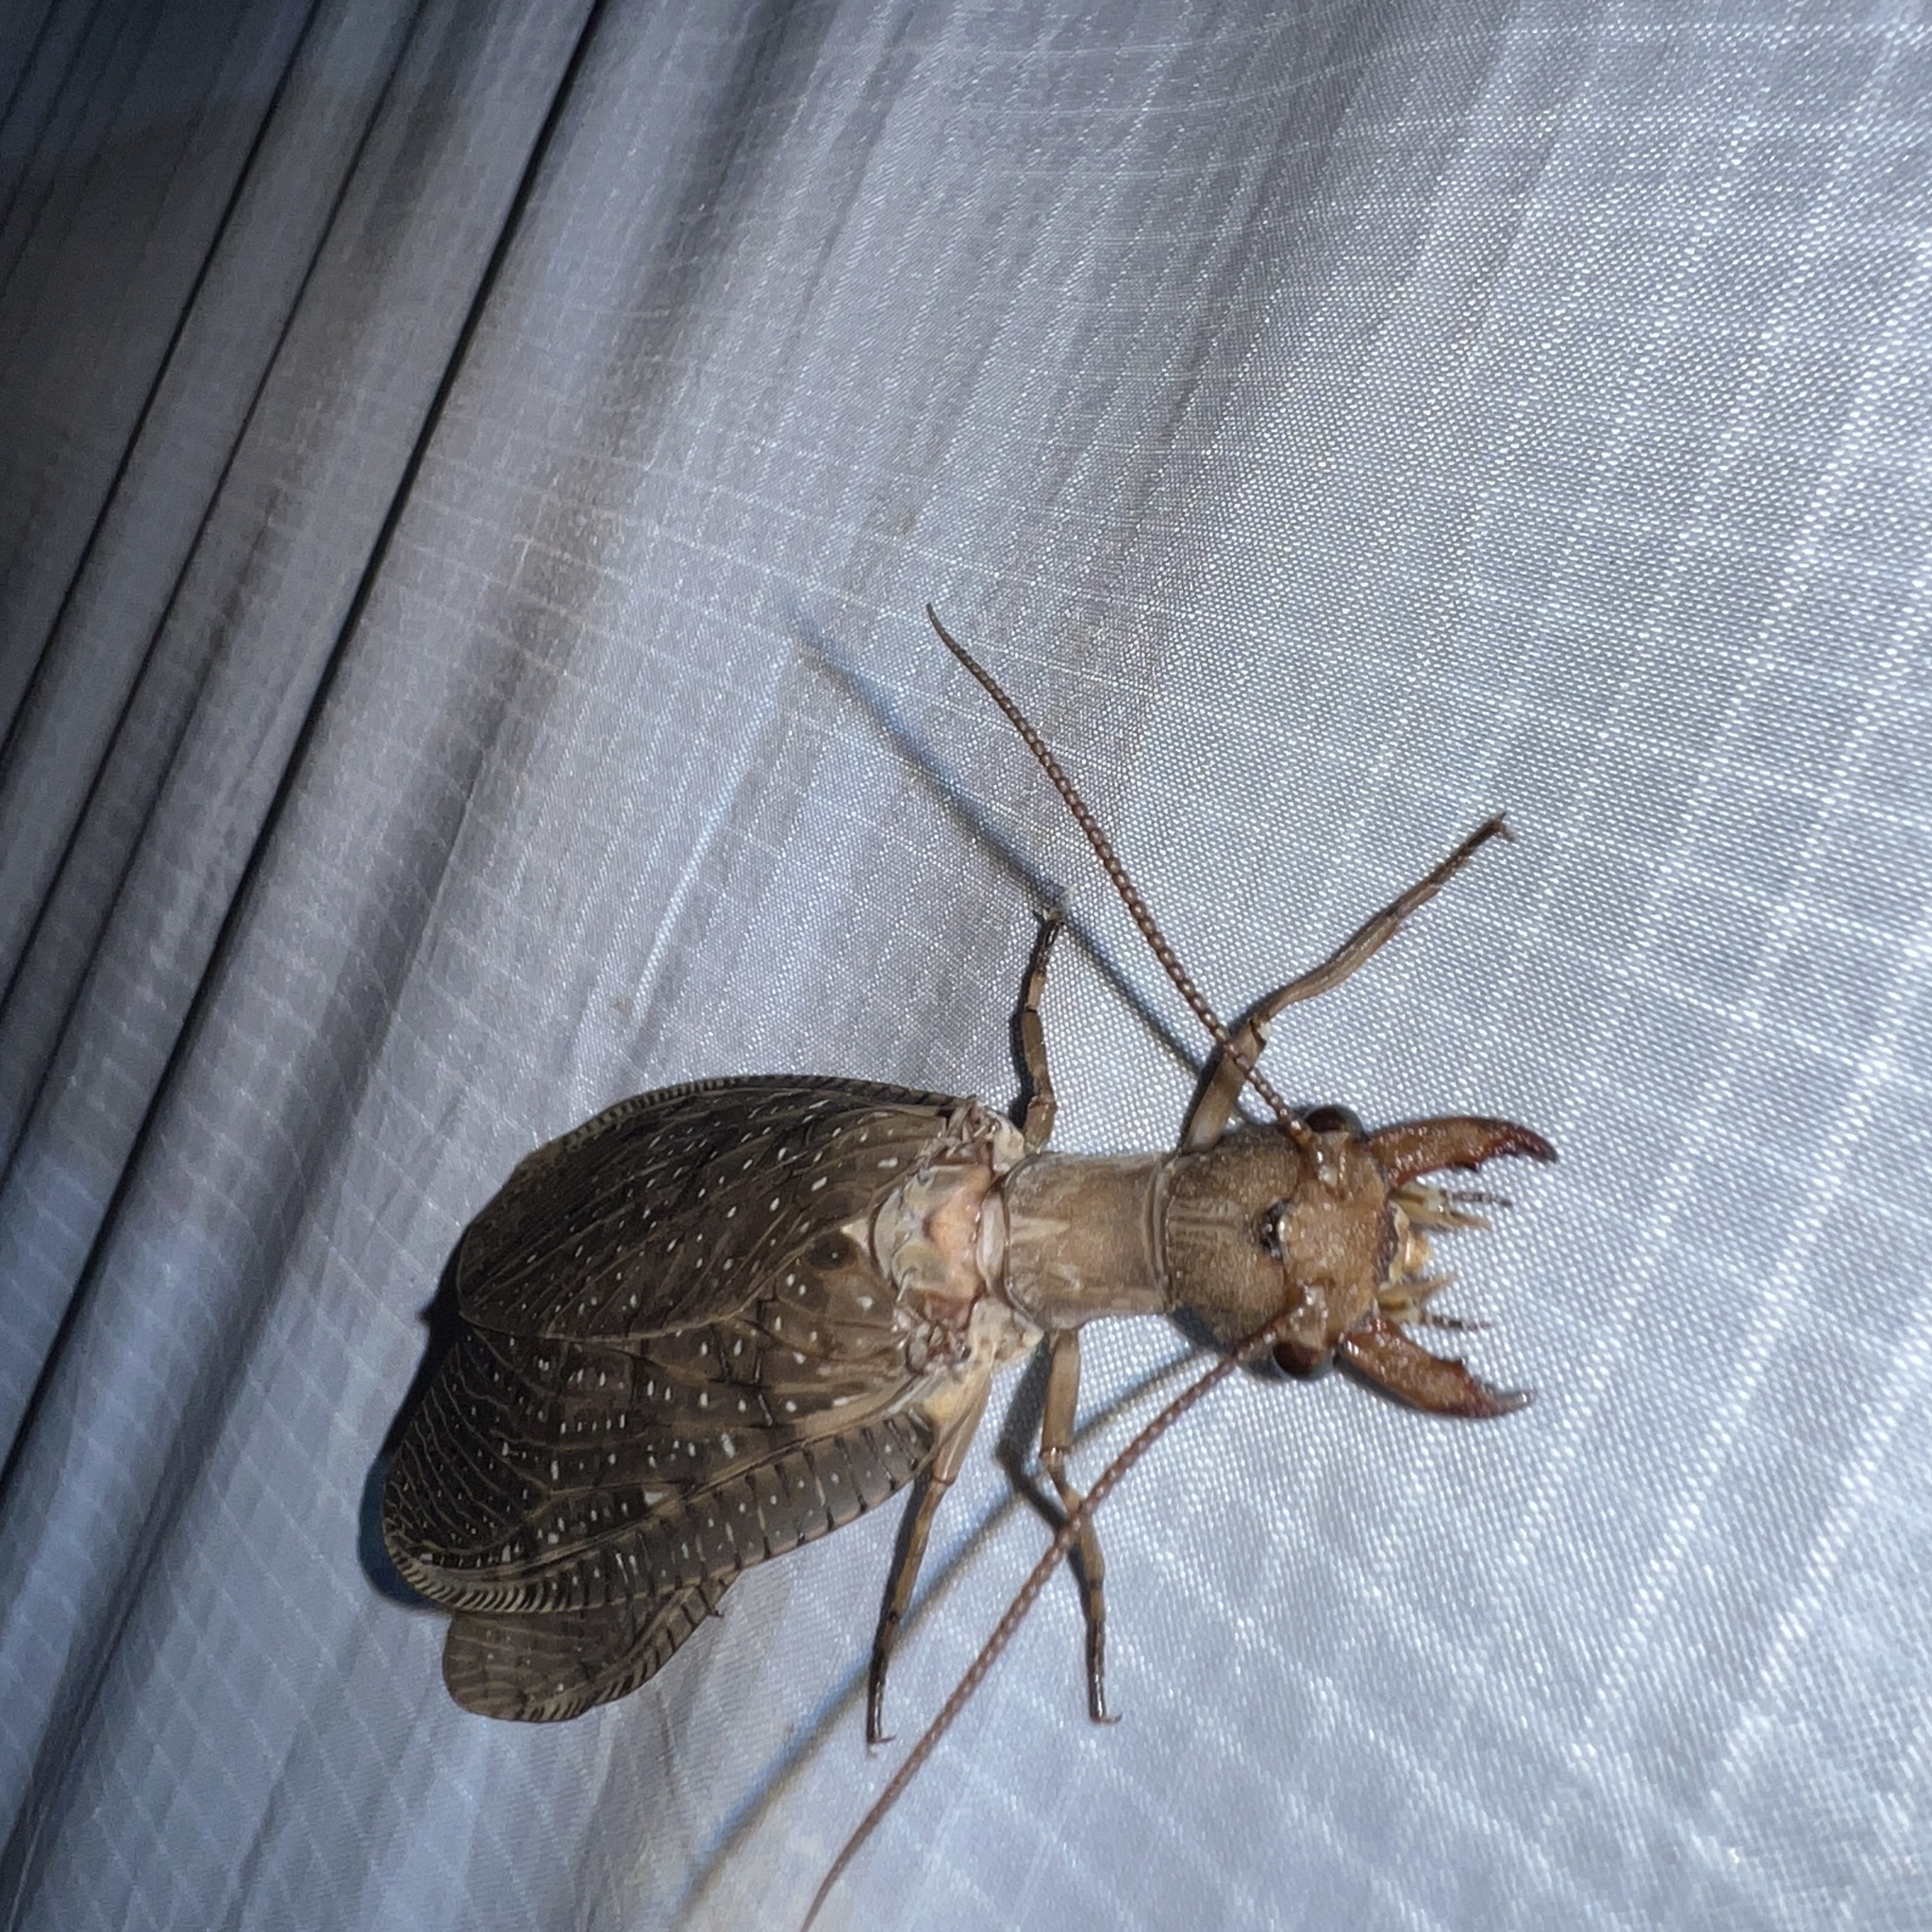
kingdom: Animalia
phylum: Arthropoda
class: Insecta
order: Megaloptera
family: Corydalidae
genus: Corydalus
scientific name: Corydalus cornutus
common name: Dobsonfly
